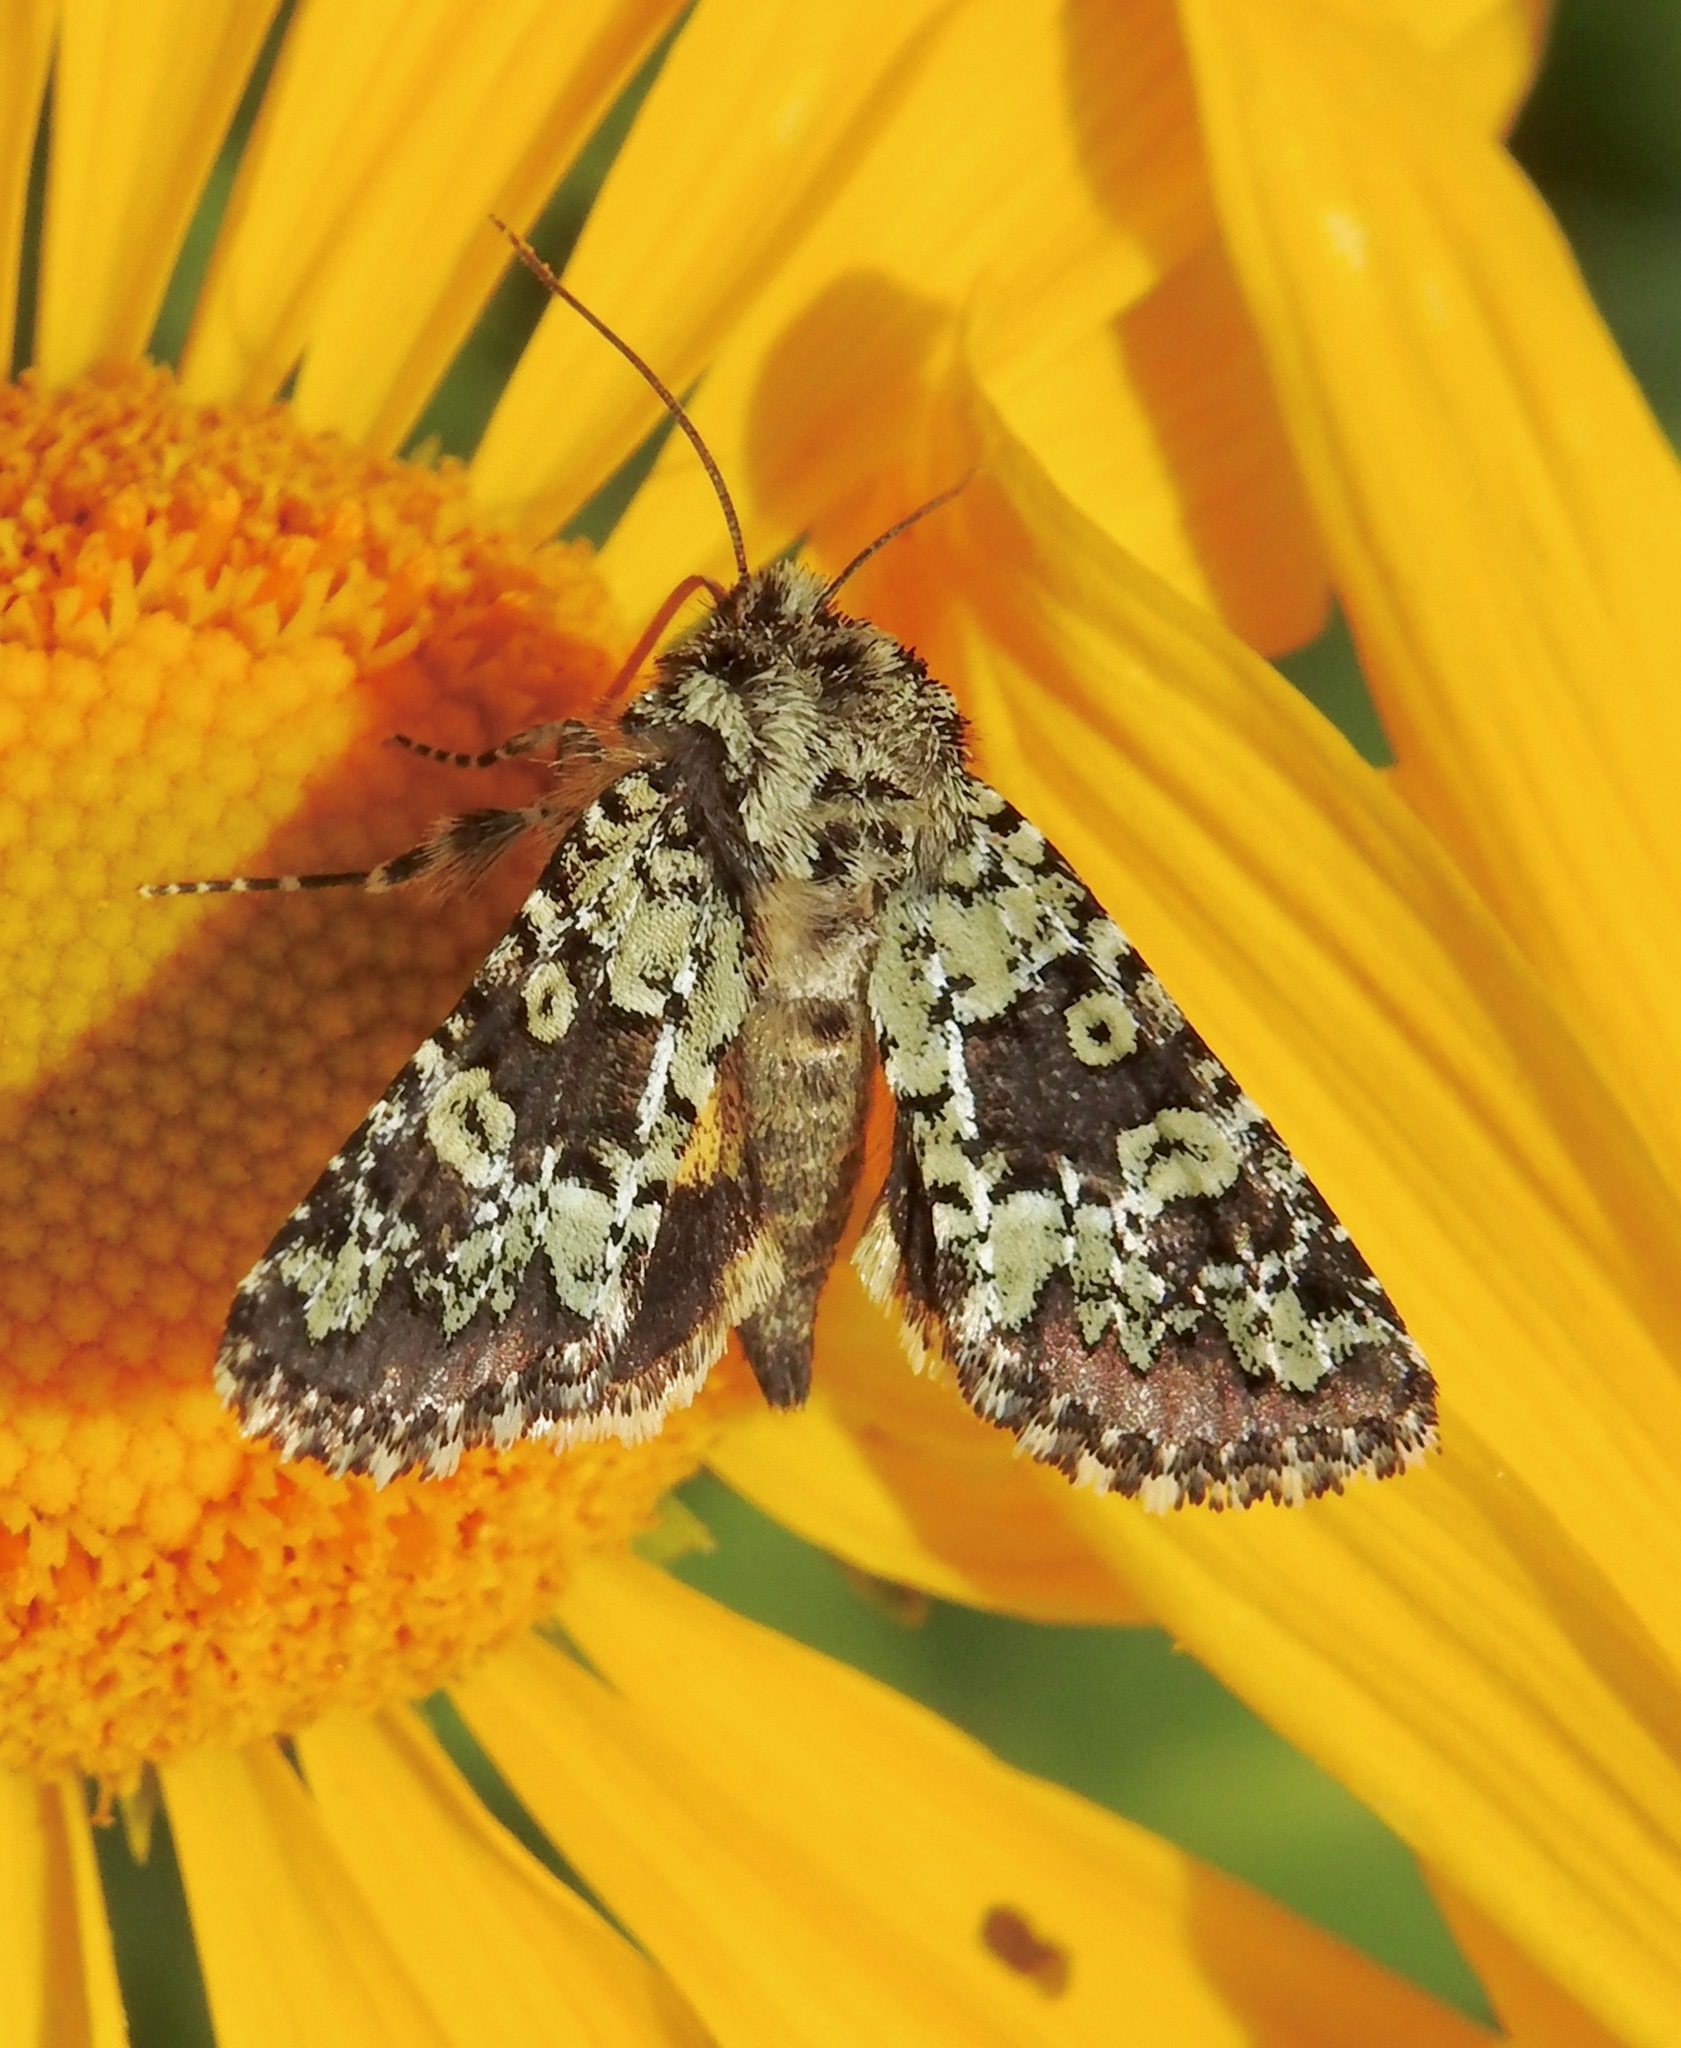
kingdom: Animalia
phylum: Arthropoda
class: Insecta
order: Lepidoptera
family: Noctuidae
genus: Pseudanarta
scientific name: Pseudanarta basivirida
